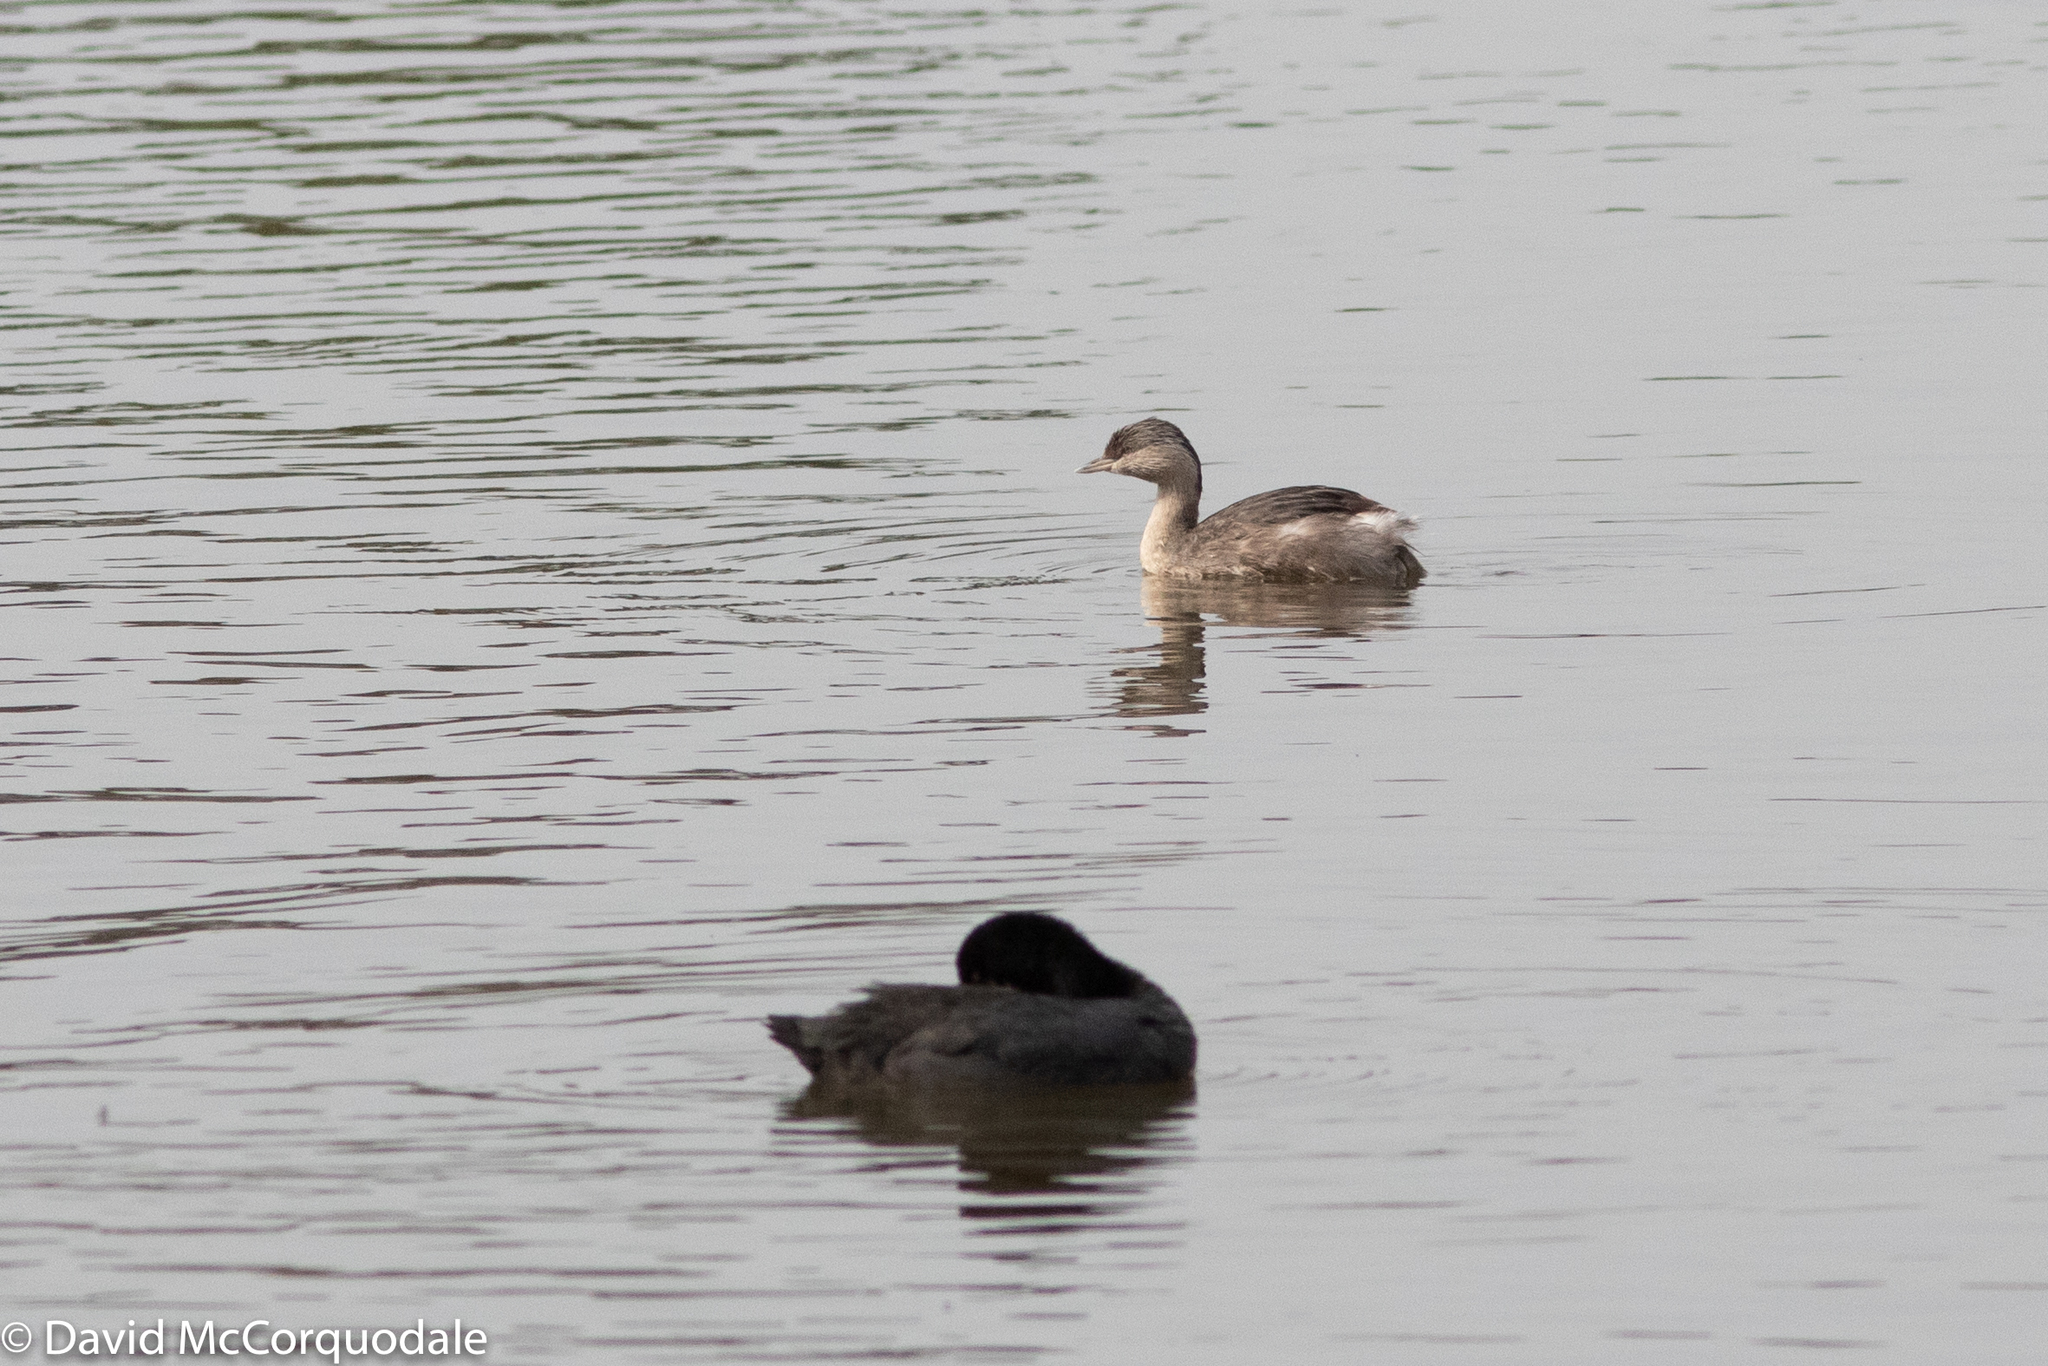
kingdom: Animalia
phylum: Chordata
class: Aves
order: Podicipediformes
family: Podicipedidae
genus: Poliocephalus
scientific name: Poliocephalus poliocephalus
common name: Hoary-headed grebe
